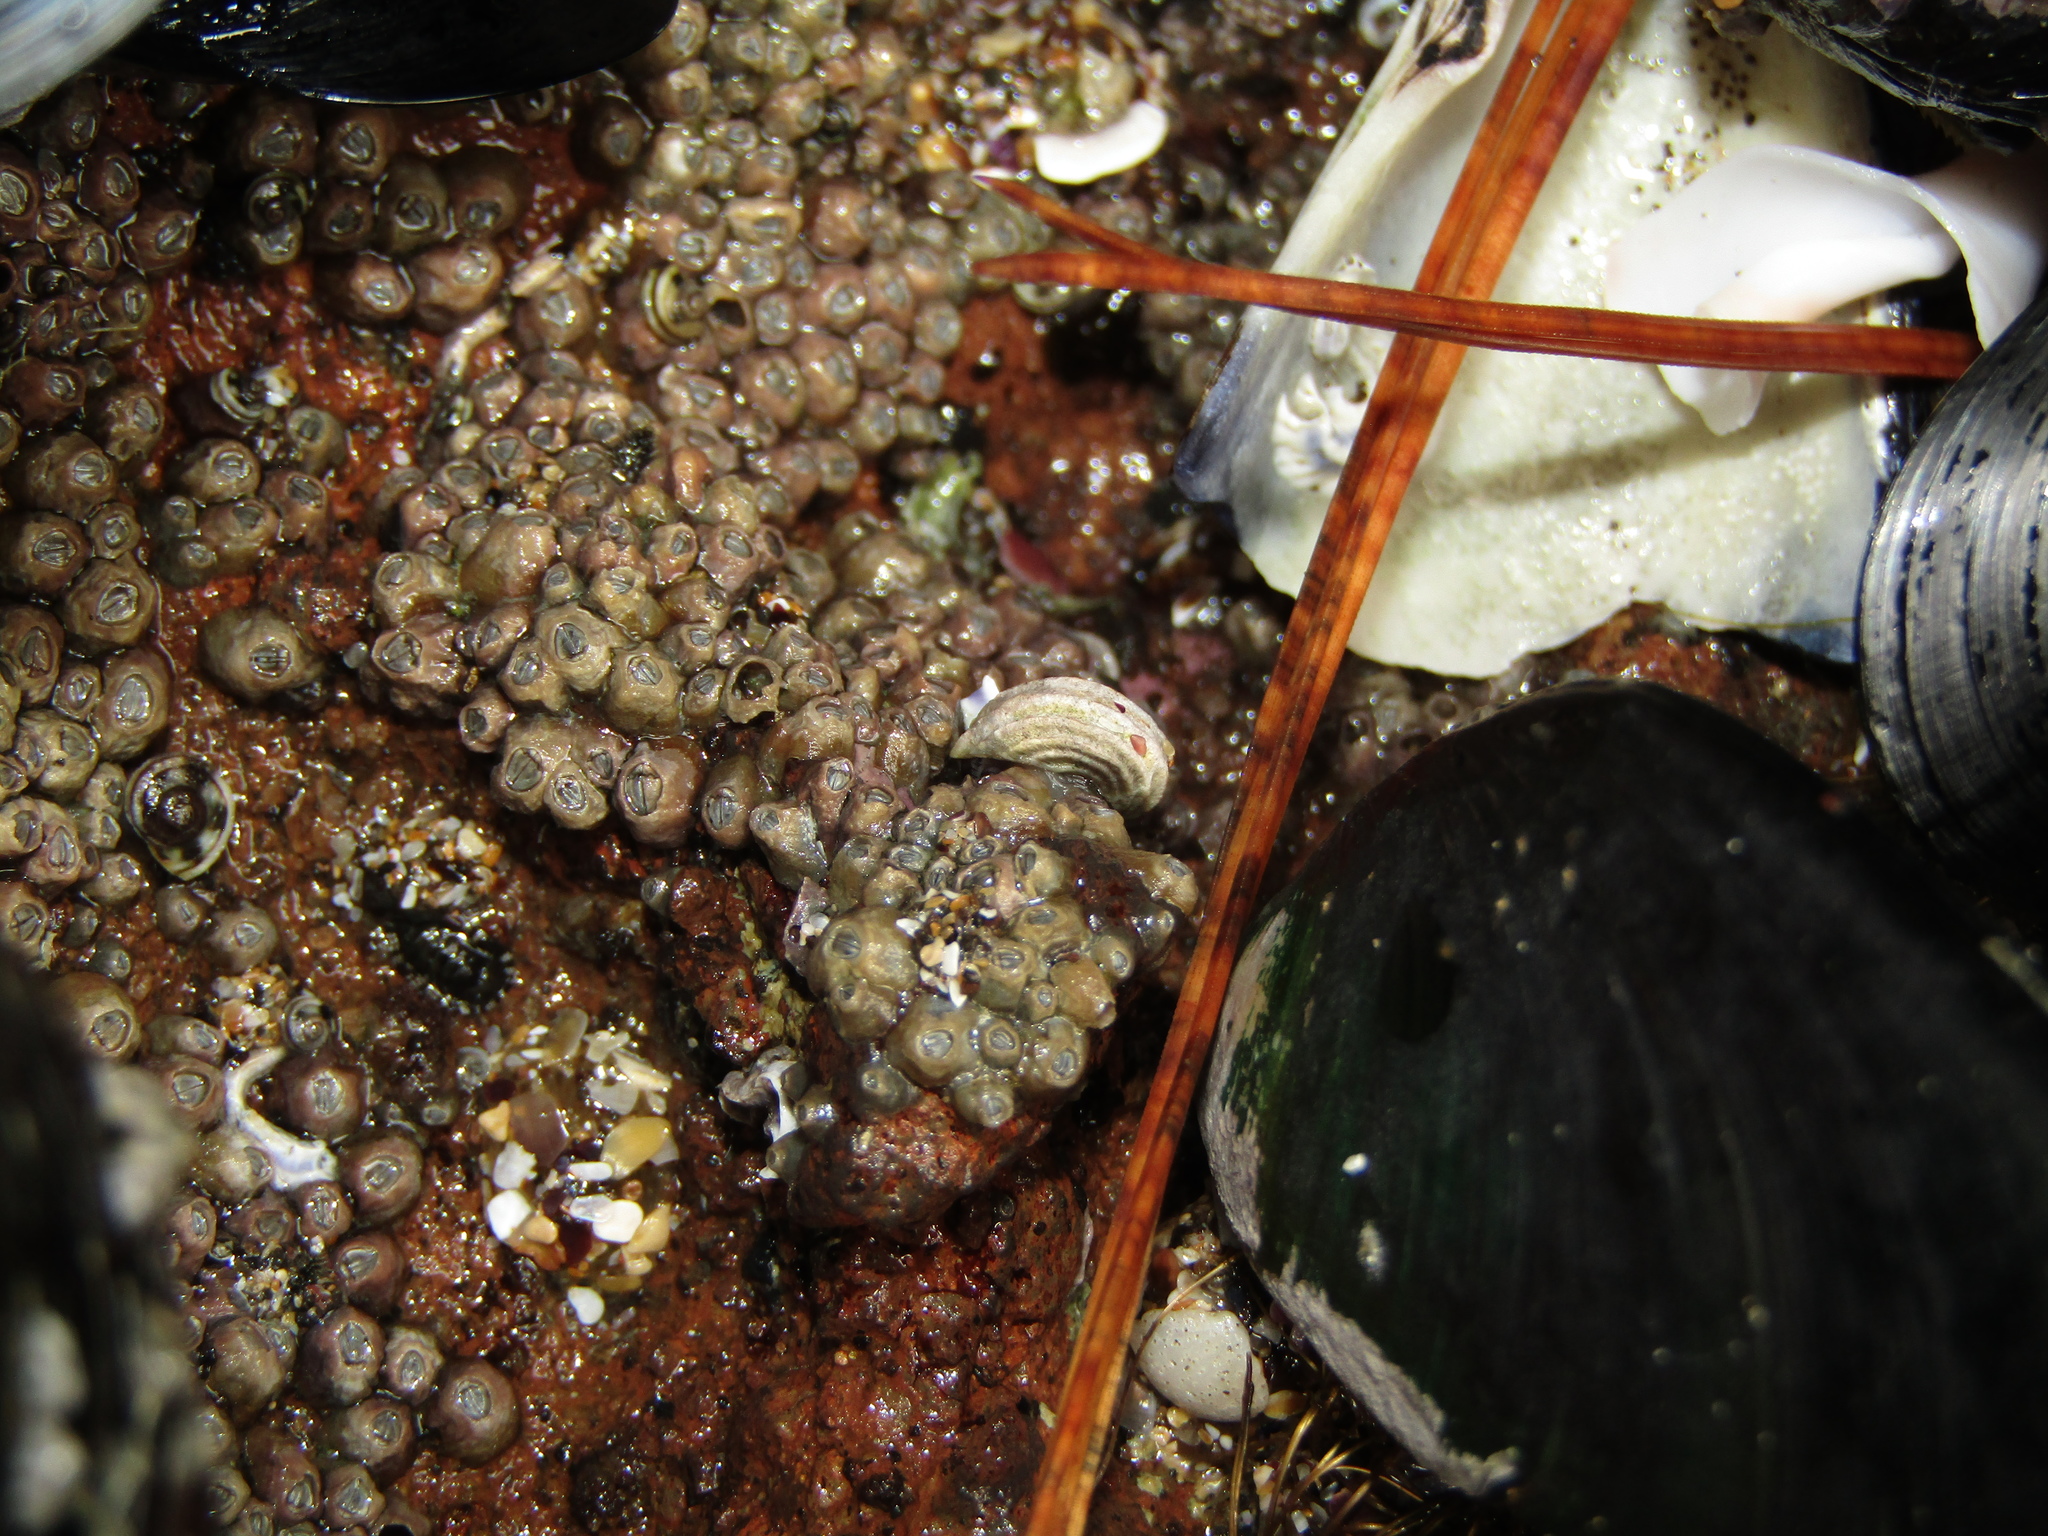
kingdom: Animalia
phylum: Mollusca
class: Gastropoda
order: Littorinimorpha
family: Littorinidae
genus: Risellopsis
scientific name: Risellopsis varia
